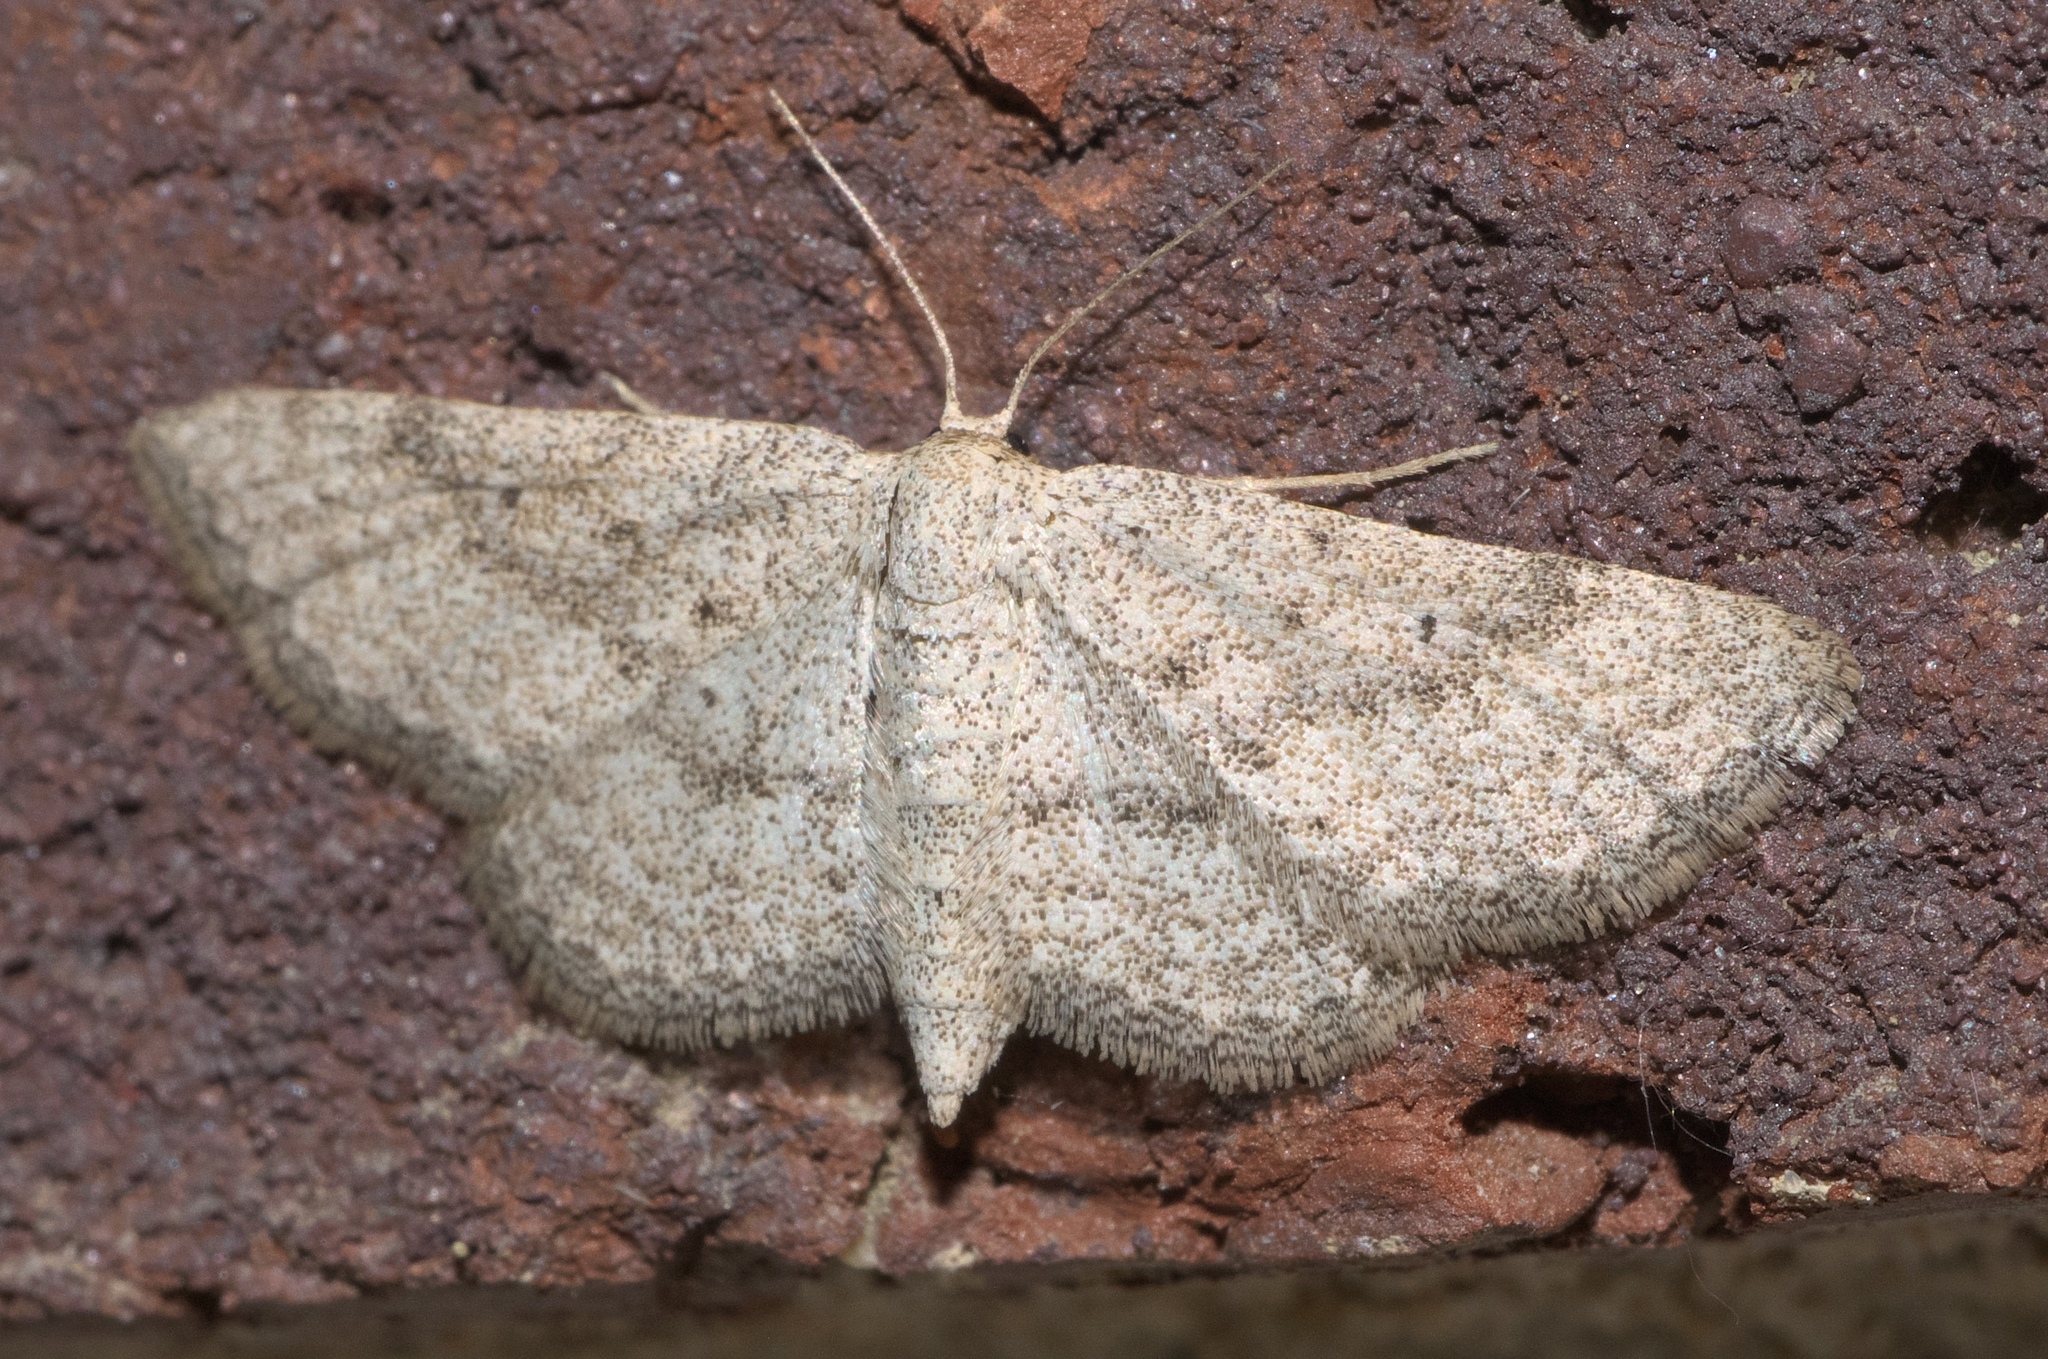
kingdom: Animalia
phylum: Arthropoda
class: Insecta
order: Lepidoptera
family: Geometridae
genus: Lobocleta
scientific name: Lobocleta ossularia
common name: Drab brown wave
